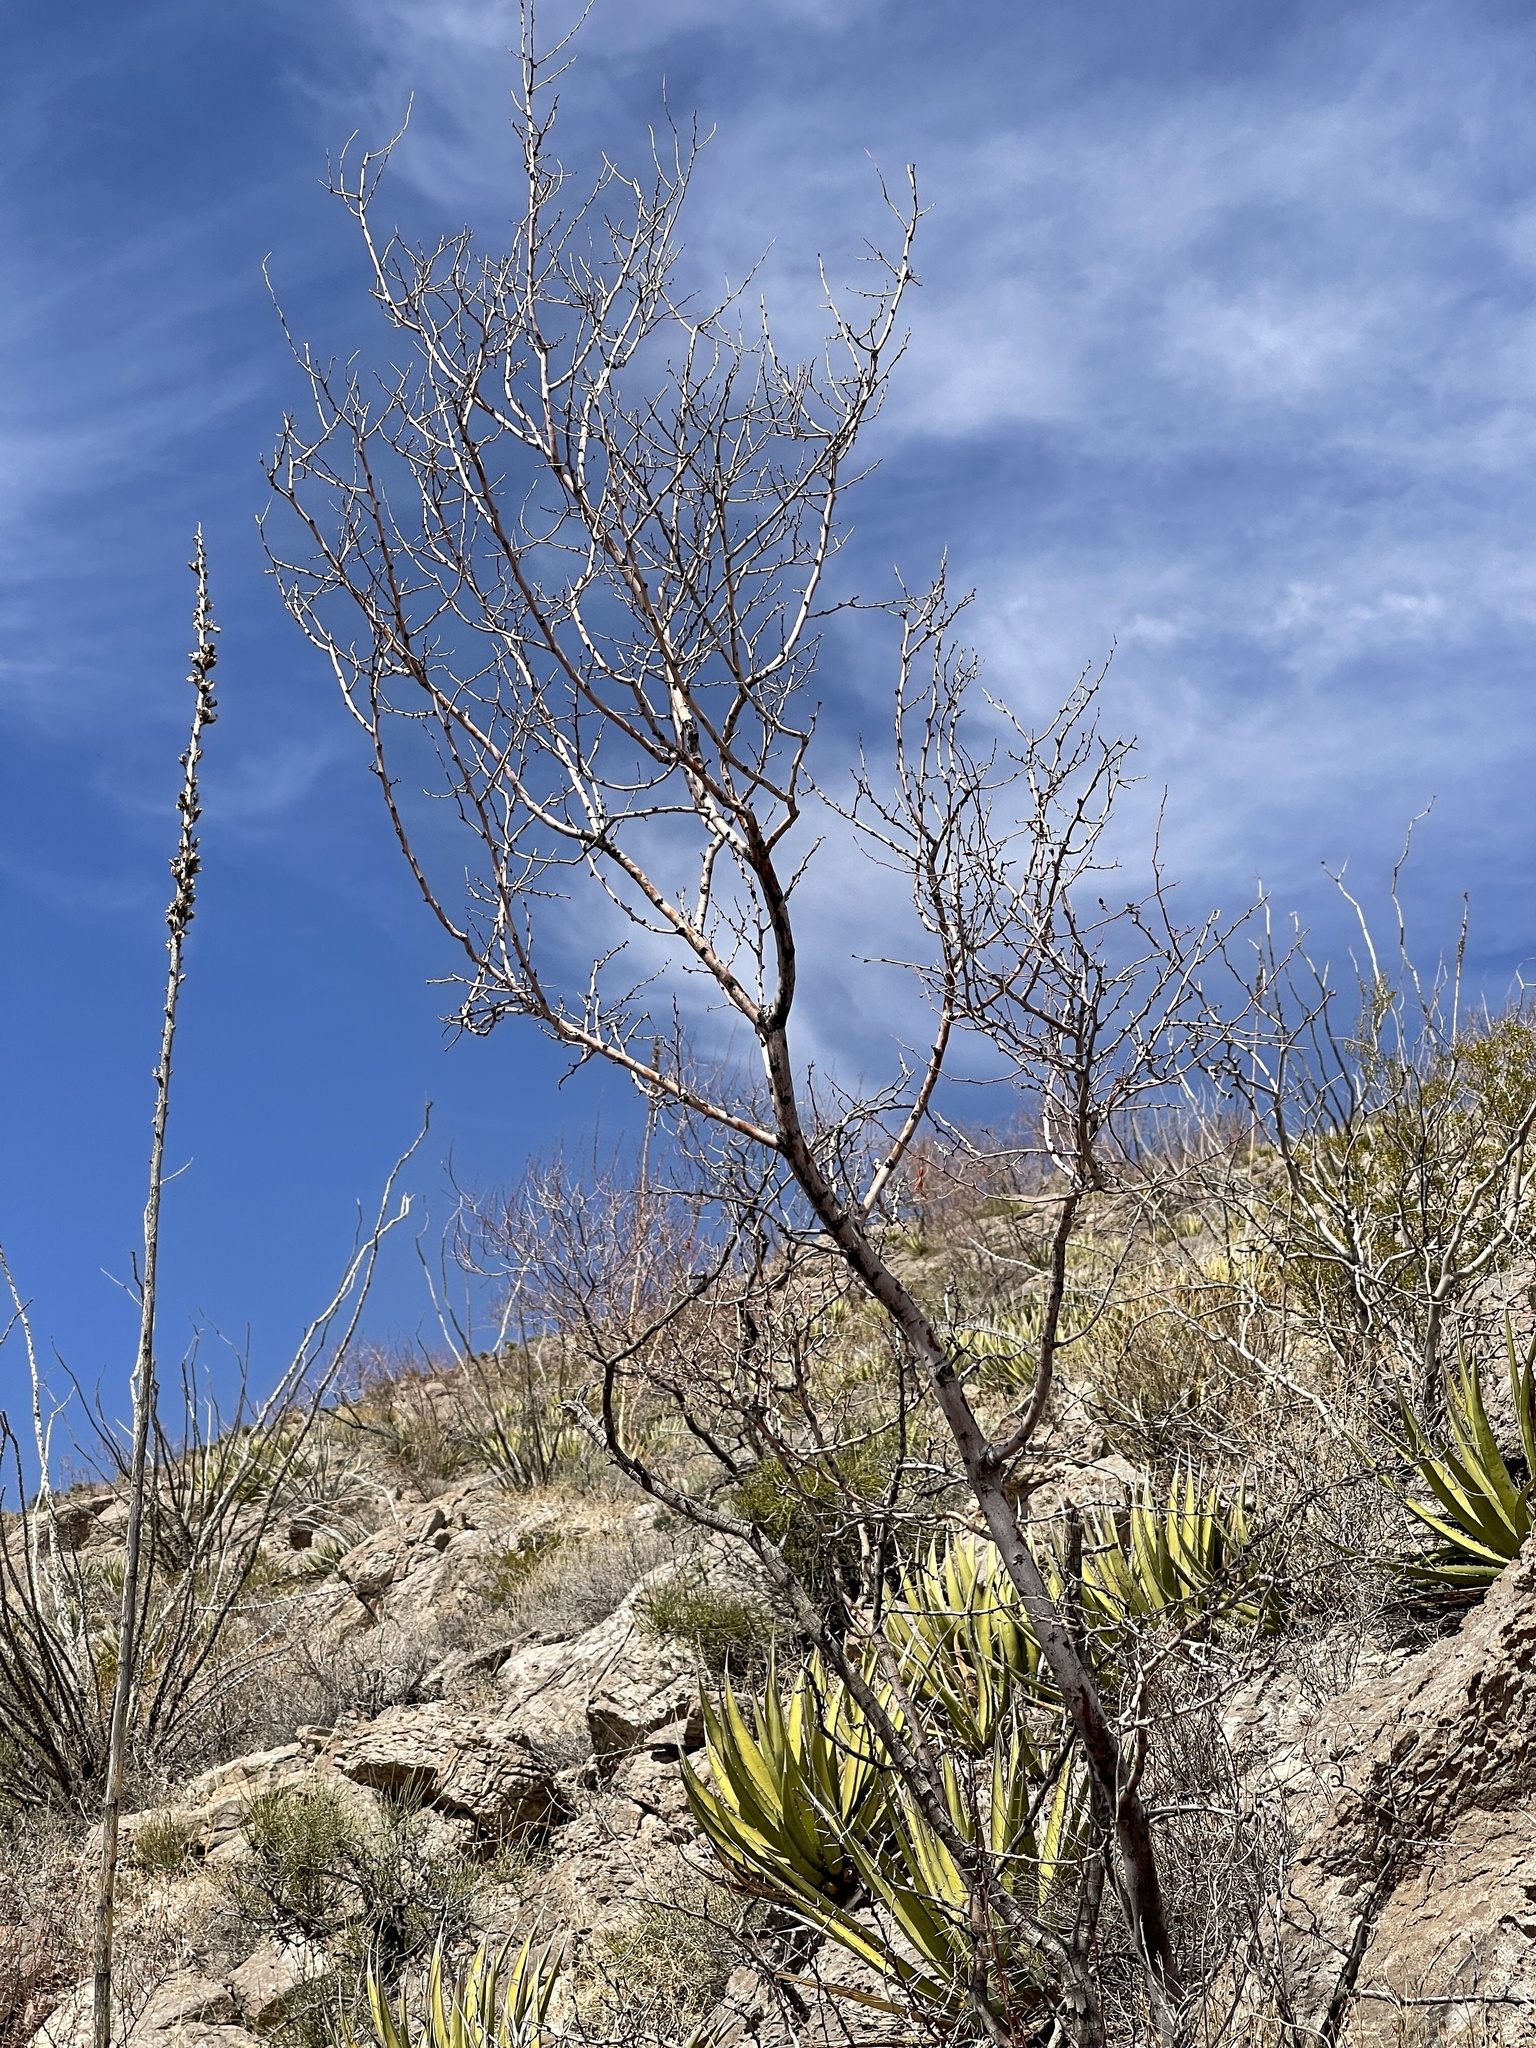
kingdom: Plantae
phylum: Tracheophyta
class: Magnoliopsida
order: Fabales
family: Fabaceae
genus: Vachellia
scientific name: Vachellia constricta
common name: Mescat acacia
